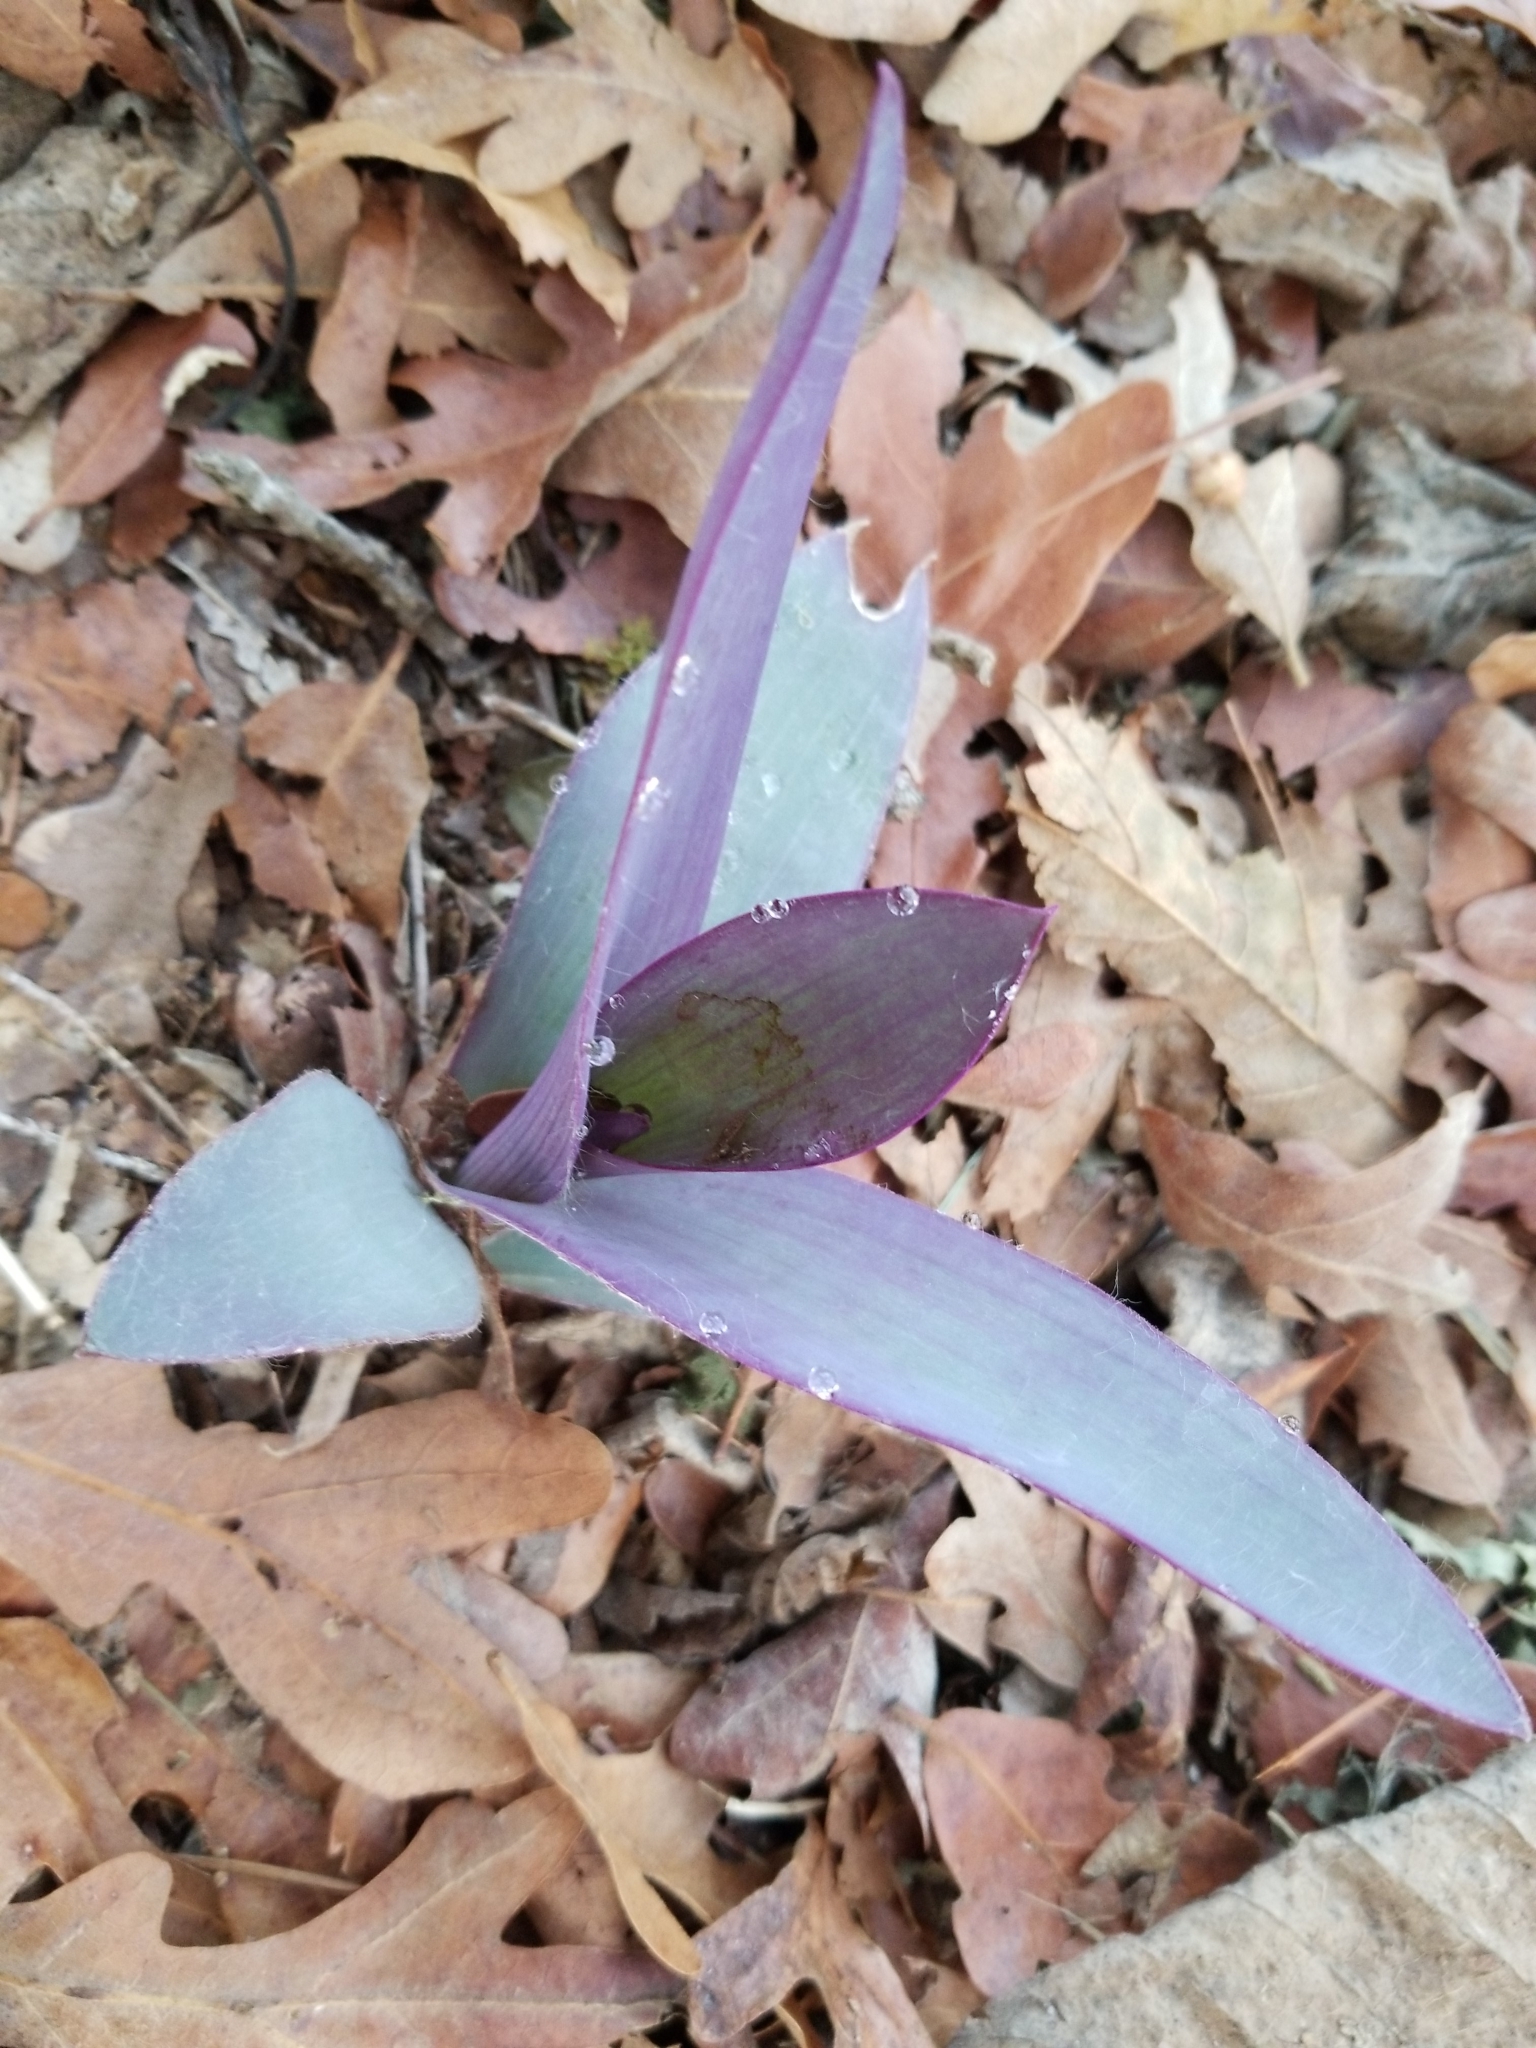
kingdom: Plantae
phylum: Tracheophyta
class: Liliopsida
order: Commelinales
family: Commelinaceae
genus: Tradescantia
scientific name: Tradescantia pallida
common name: Purpleheart
